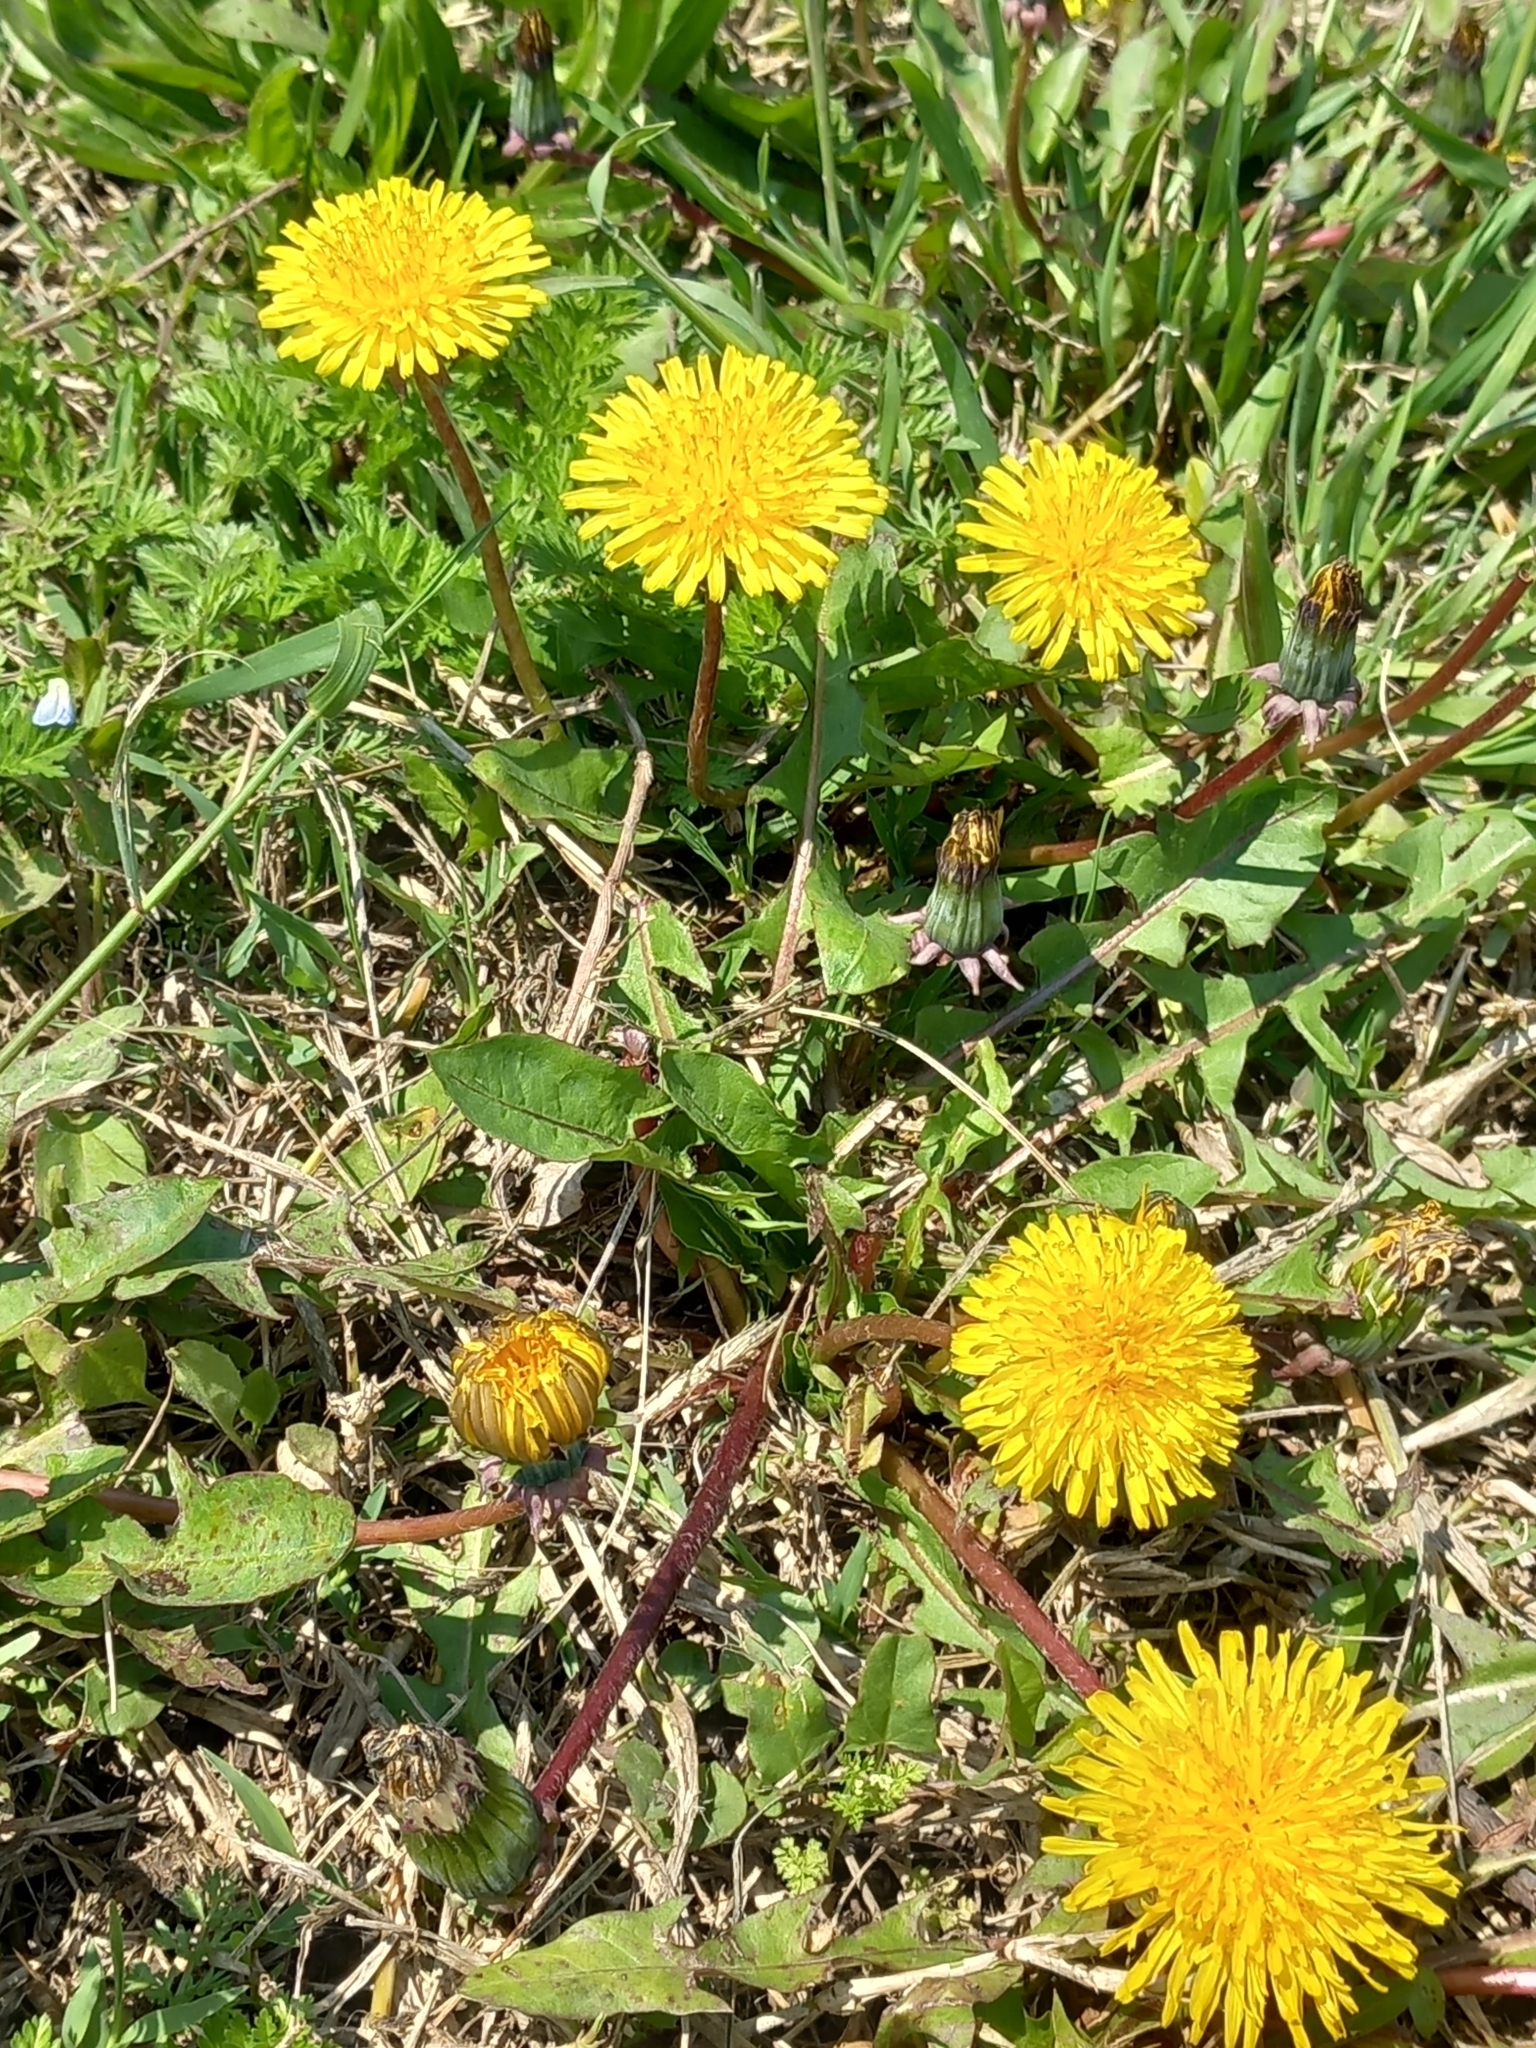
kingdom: Plantae
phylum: Tracheophyta
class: Magnoliopsida
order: Asterales
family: Asteraceae
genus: Taraxacum
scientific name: Taraxacum officinale
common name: Common dandelion
